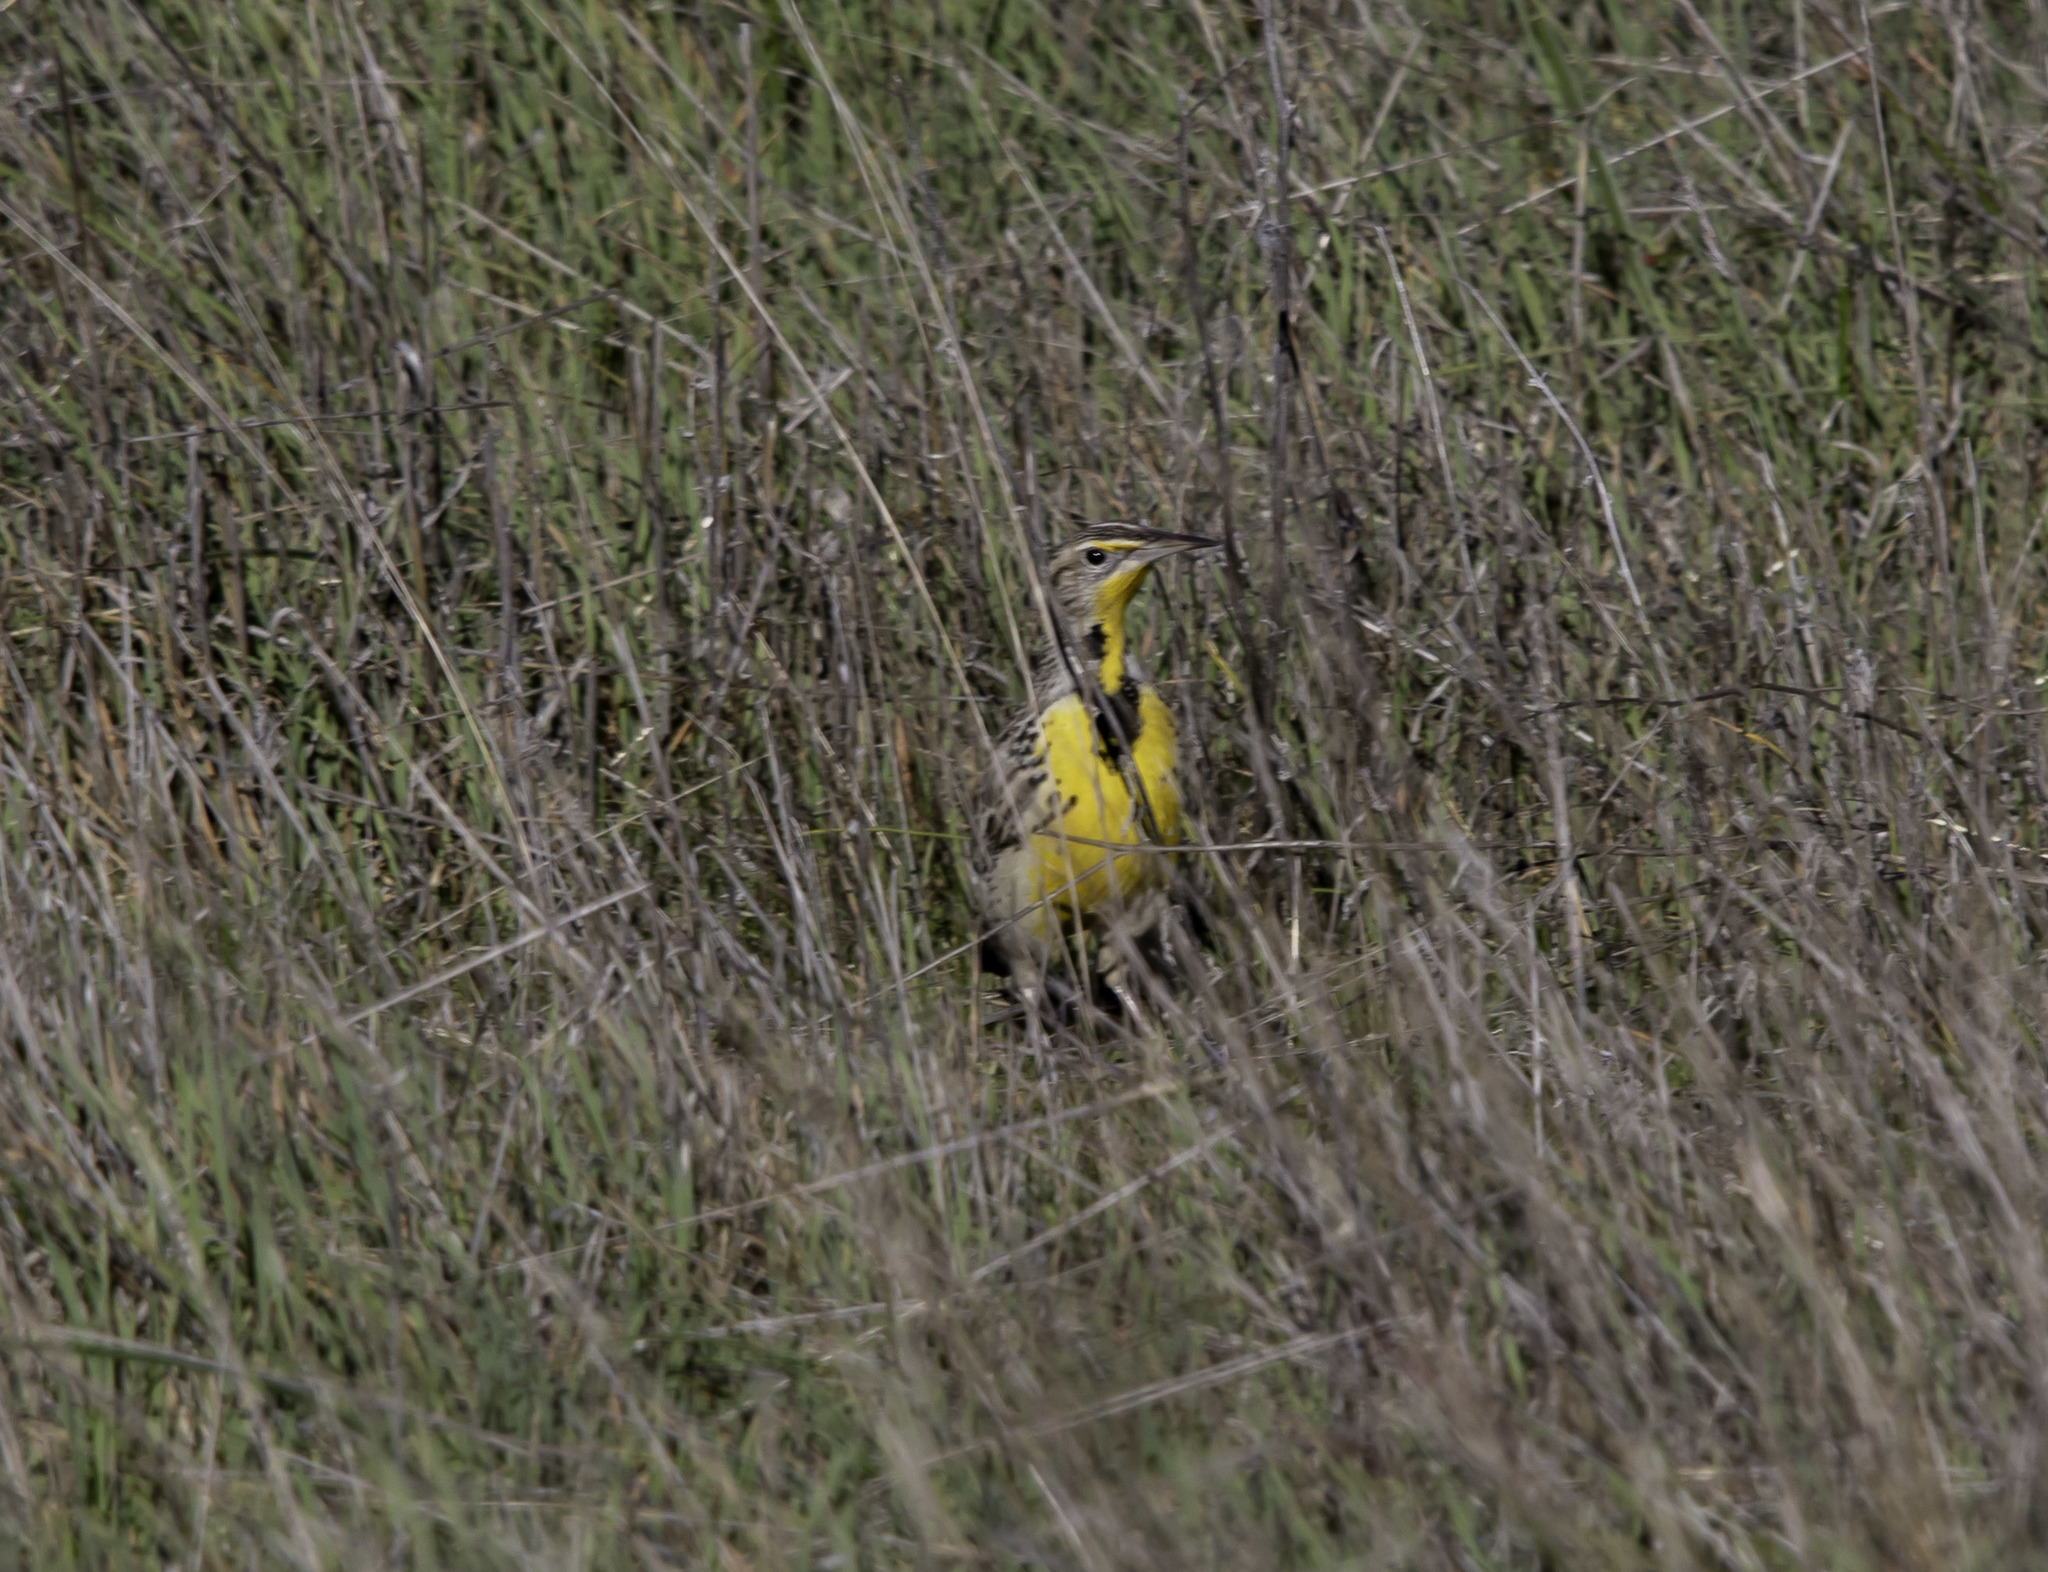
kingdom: Animalia
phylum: Chordata
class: Aves
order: Passeriformes
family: Icteridae
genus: Sturnella
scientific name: Sturnella neglecta
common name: Western meadowlark
